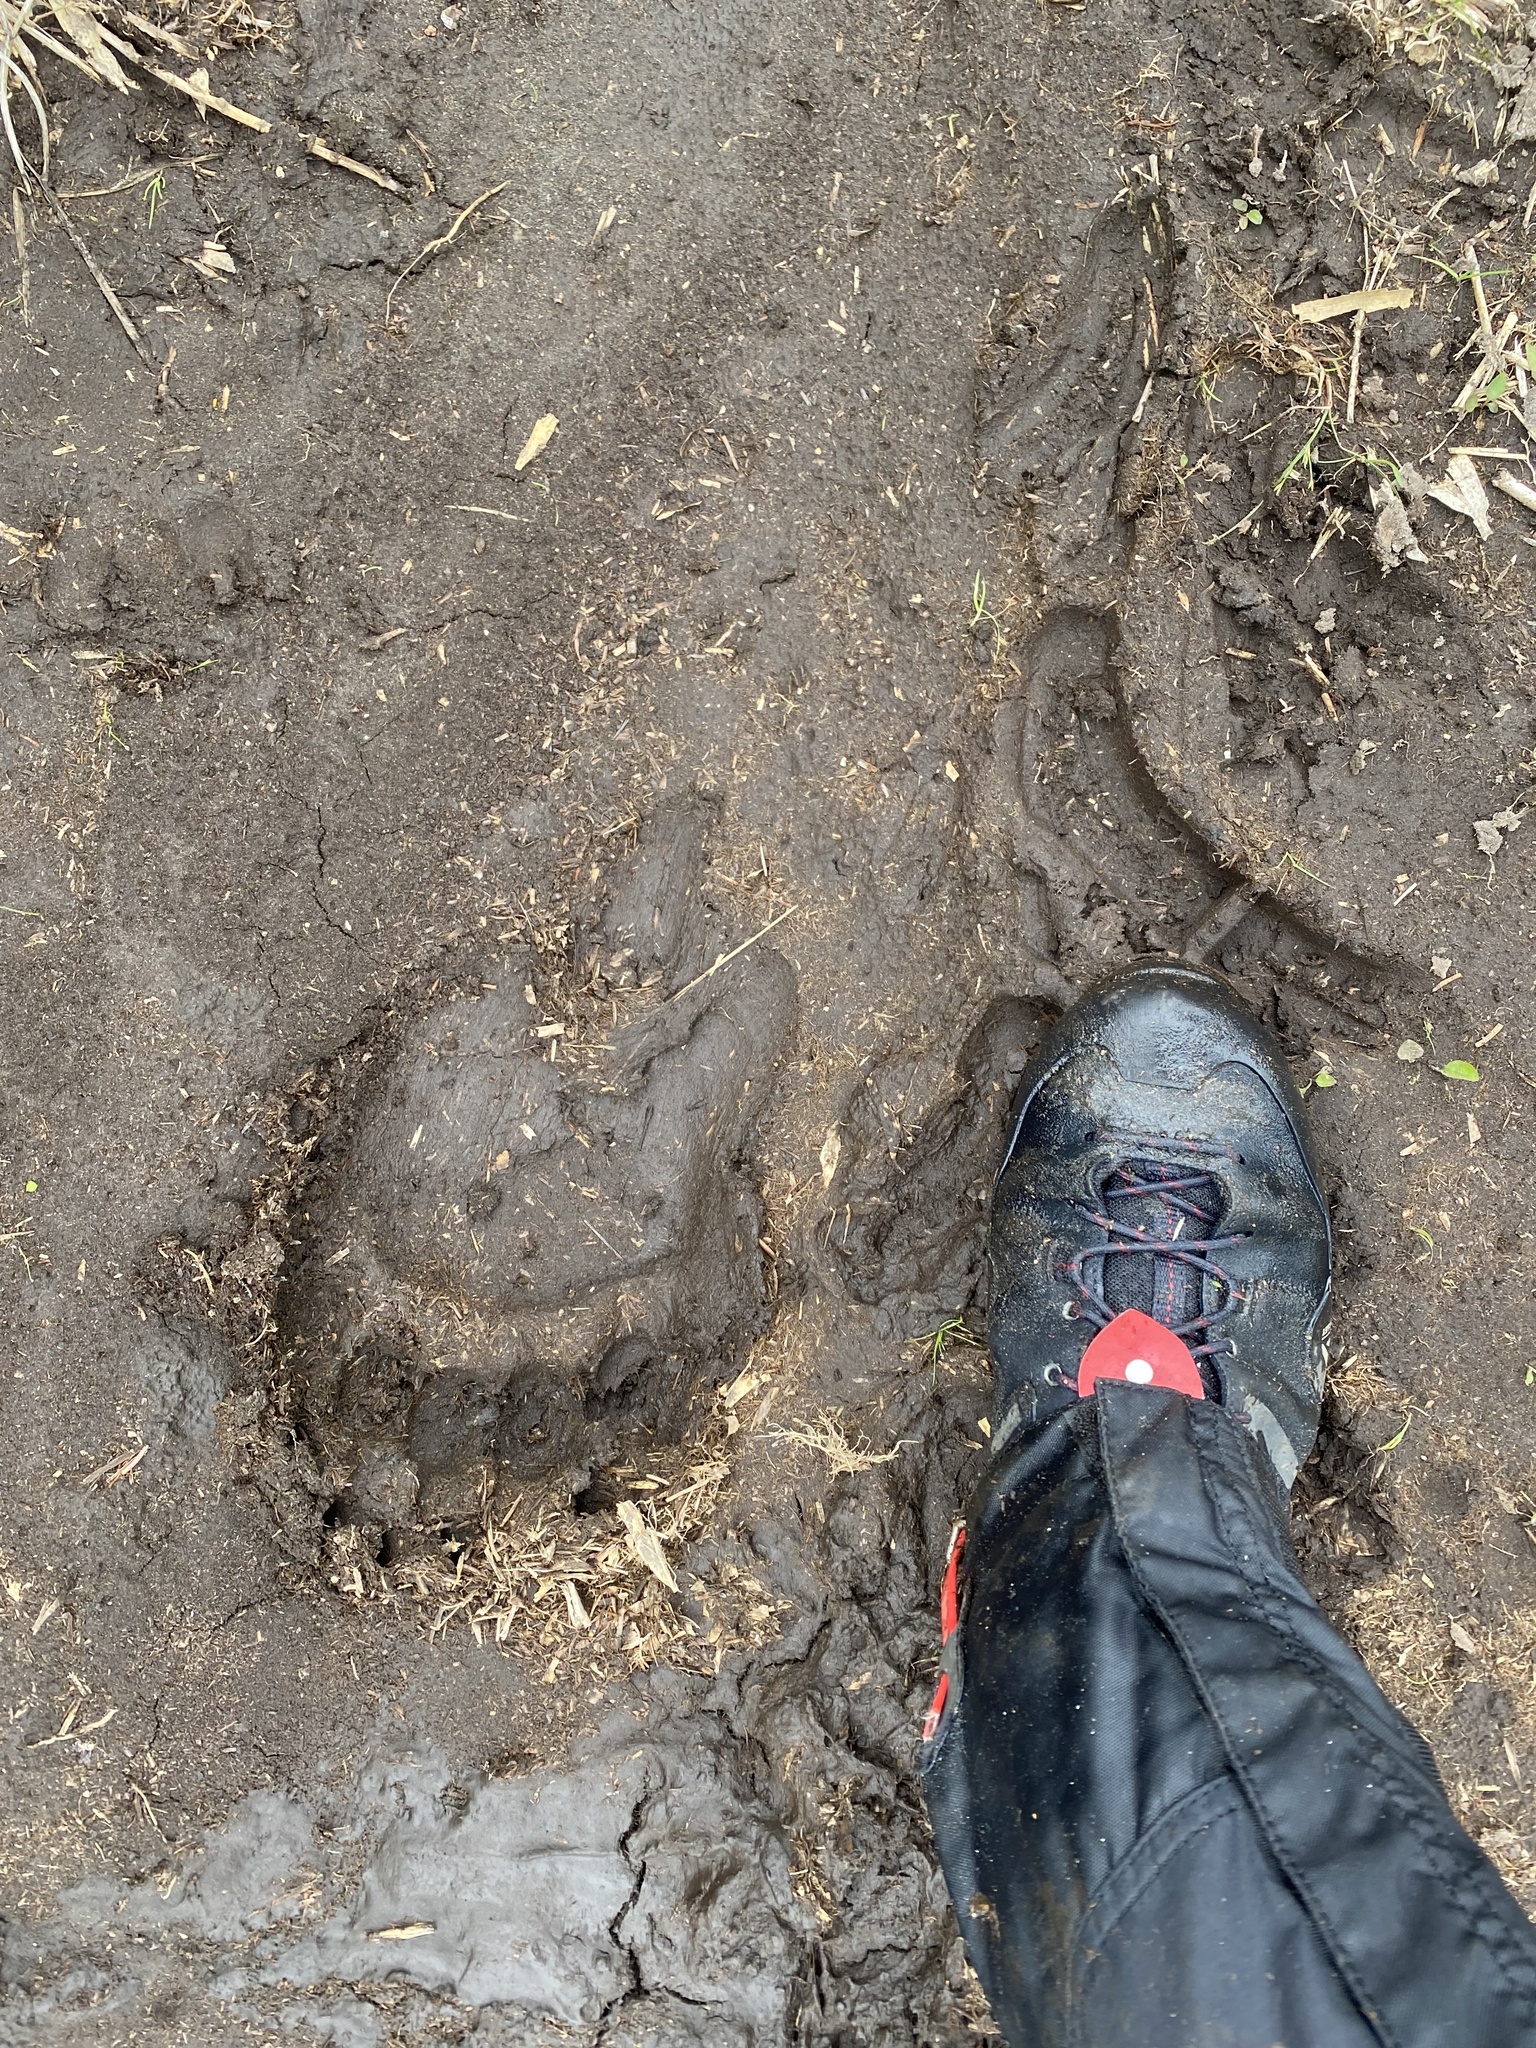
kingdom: Animalia
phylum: Chordata
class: Mammalia
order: Carnivora
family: Ursidae
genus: Ursus
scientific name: Ursus arctos
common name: Brown bear
